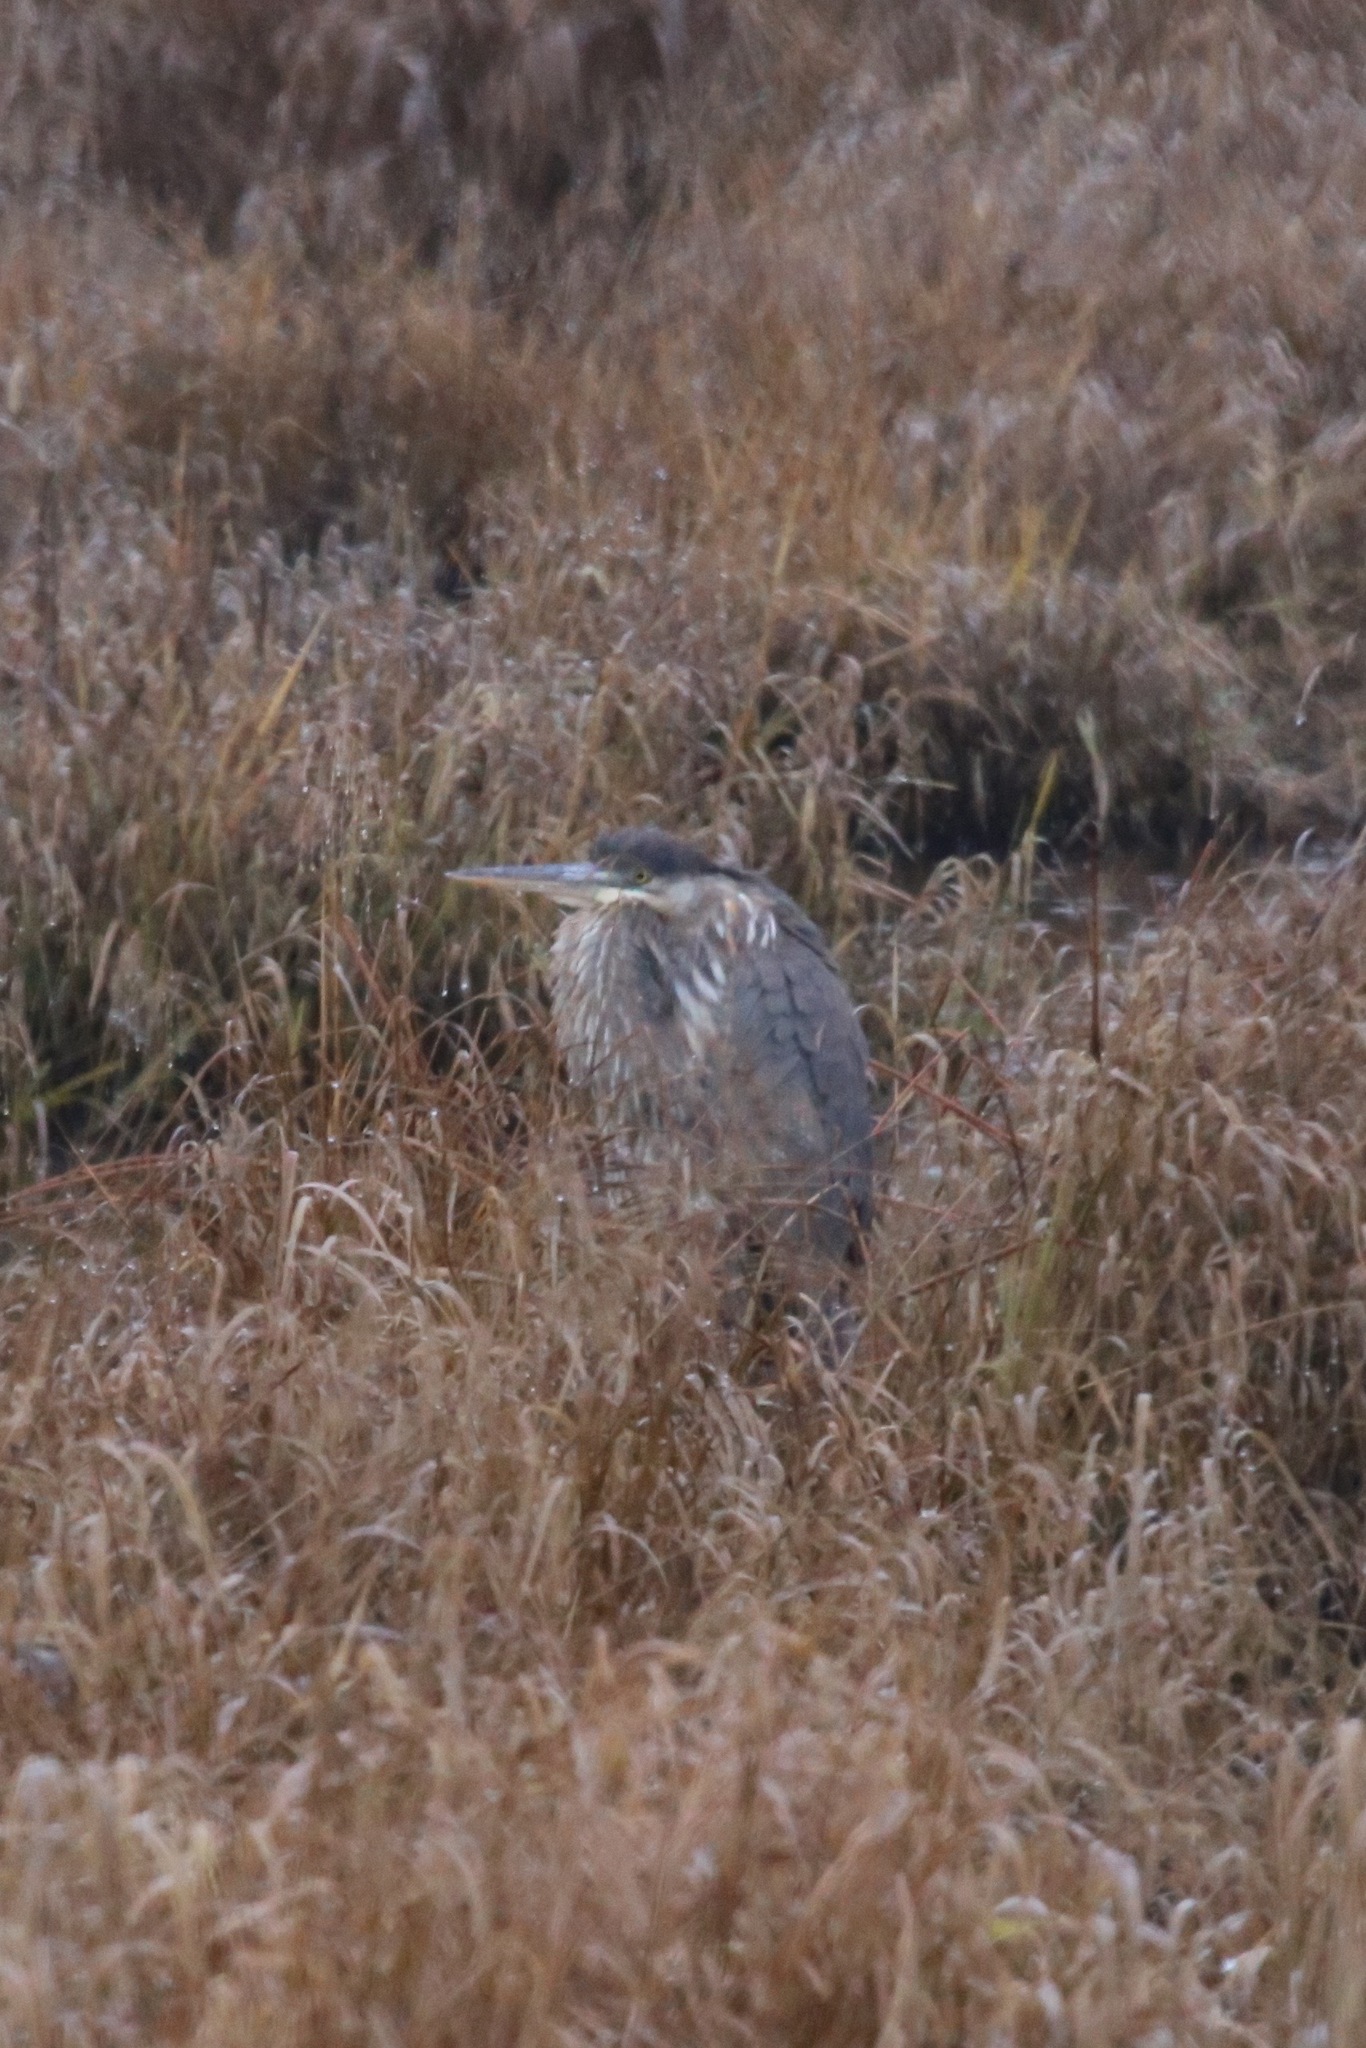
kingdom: Animalia
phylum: Chordata
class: Aves
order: Pelecaniformes
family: Ardeidae
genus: Ardea
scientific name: Ardea herodias
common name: Great blue heron
